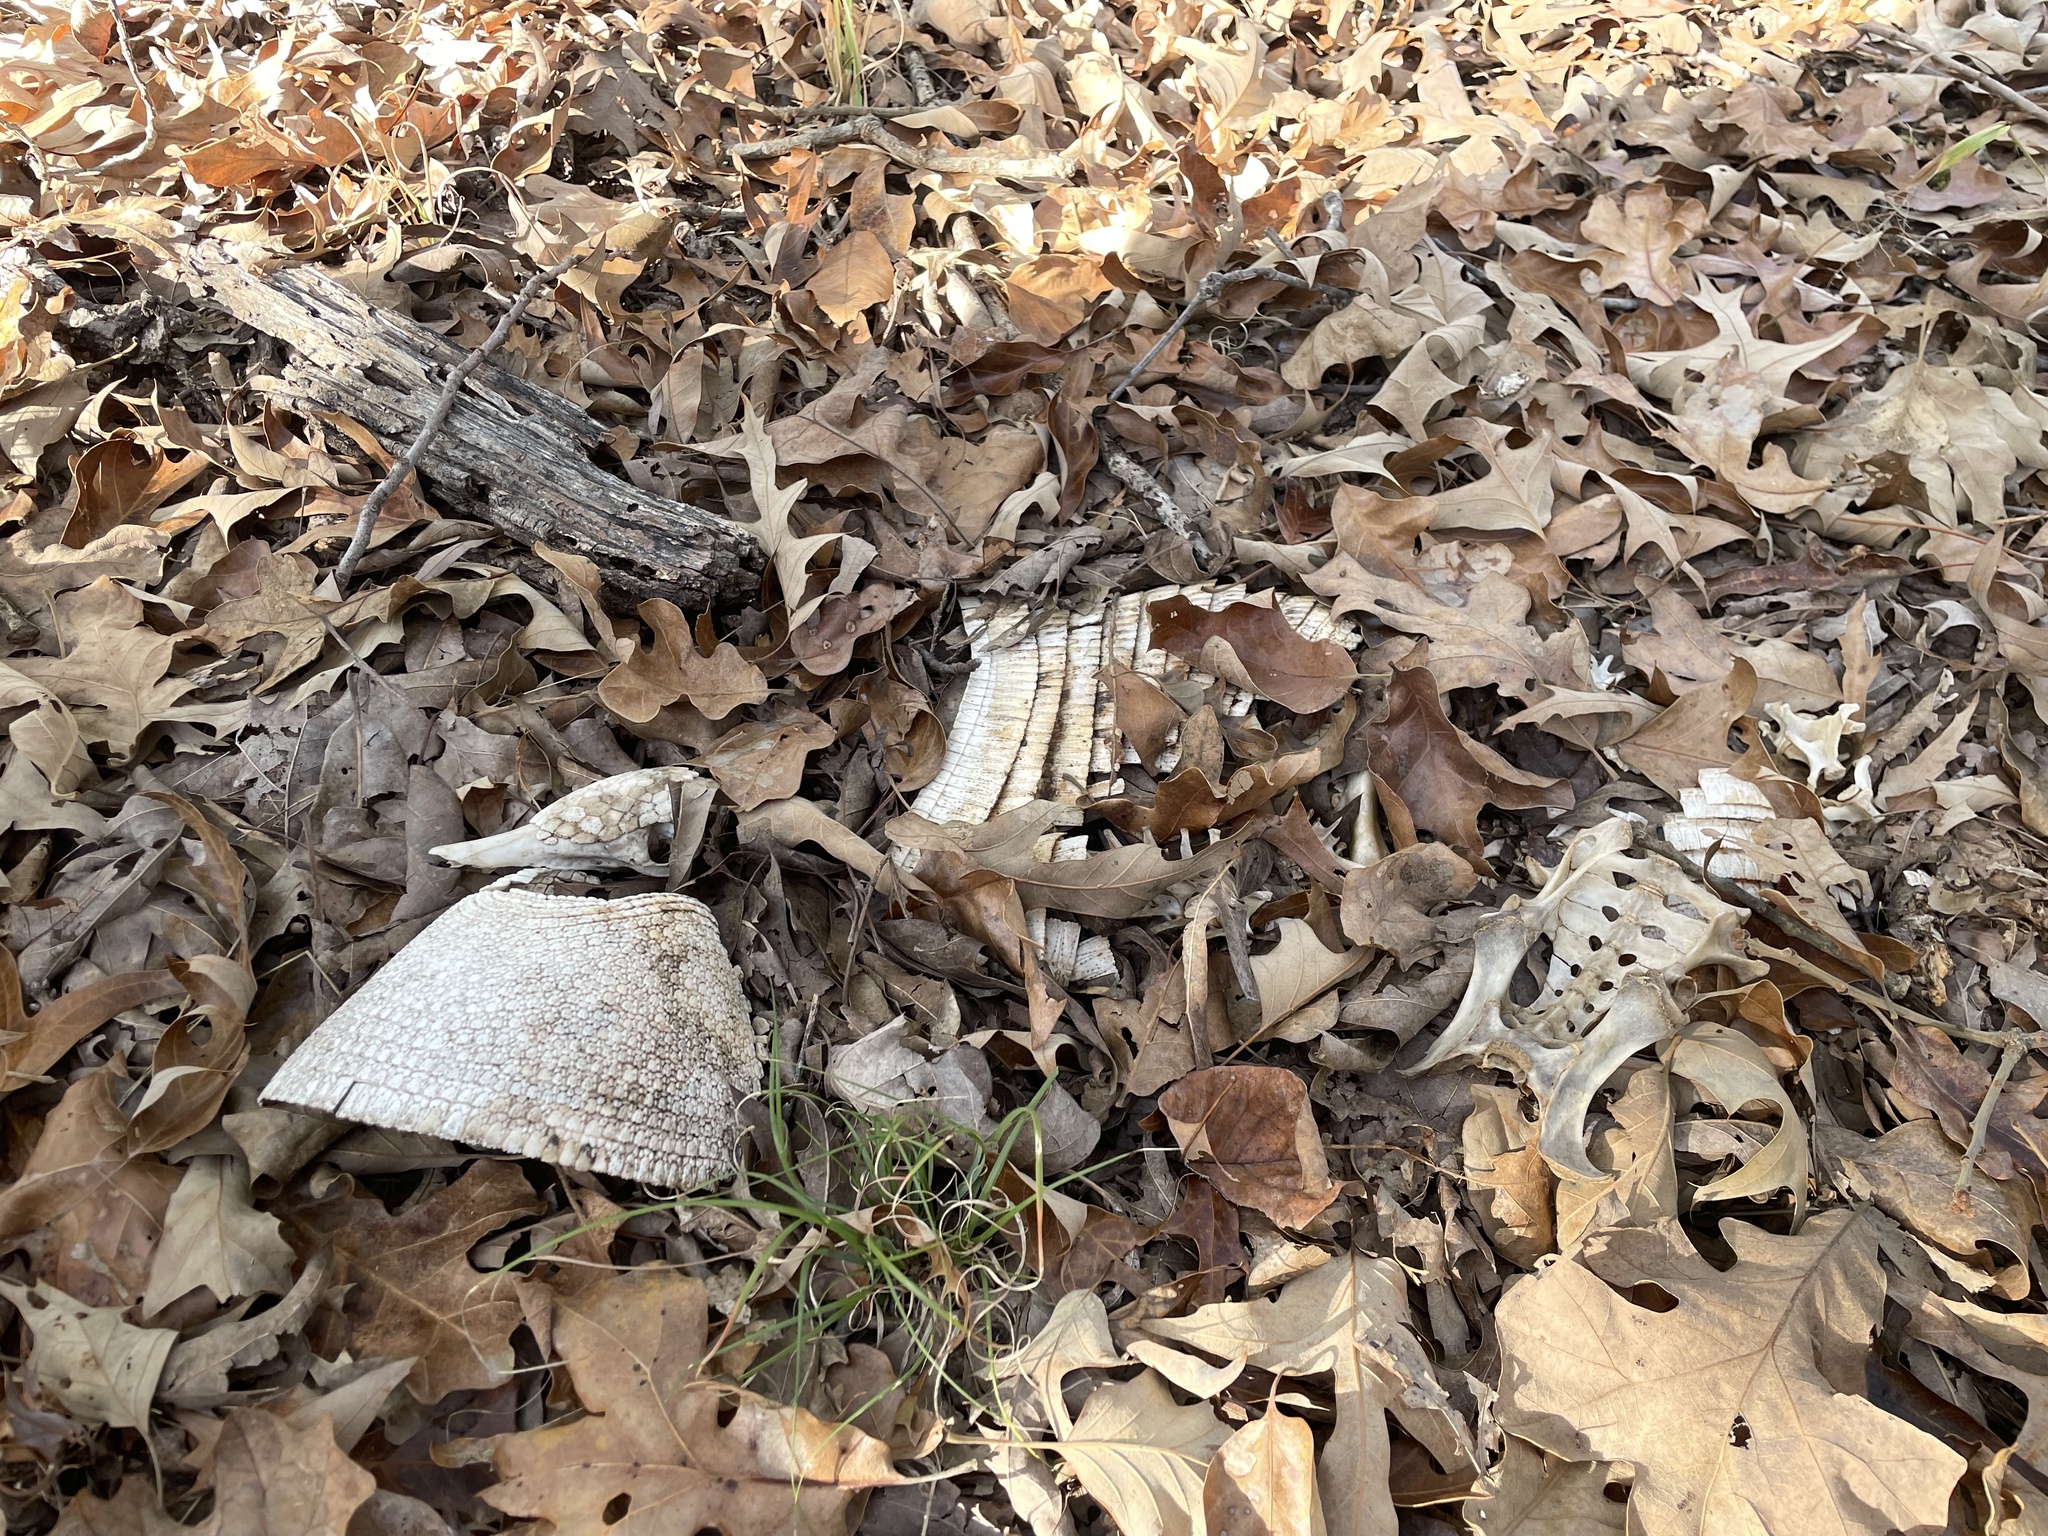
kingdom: Animalia
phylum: Chordata
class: Mammalia
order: Cingulata
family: Dasypodidae
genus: Dasypus
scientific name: Dasypus novemcinctus
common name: Nine-banded armadillo
